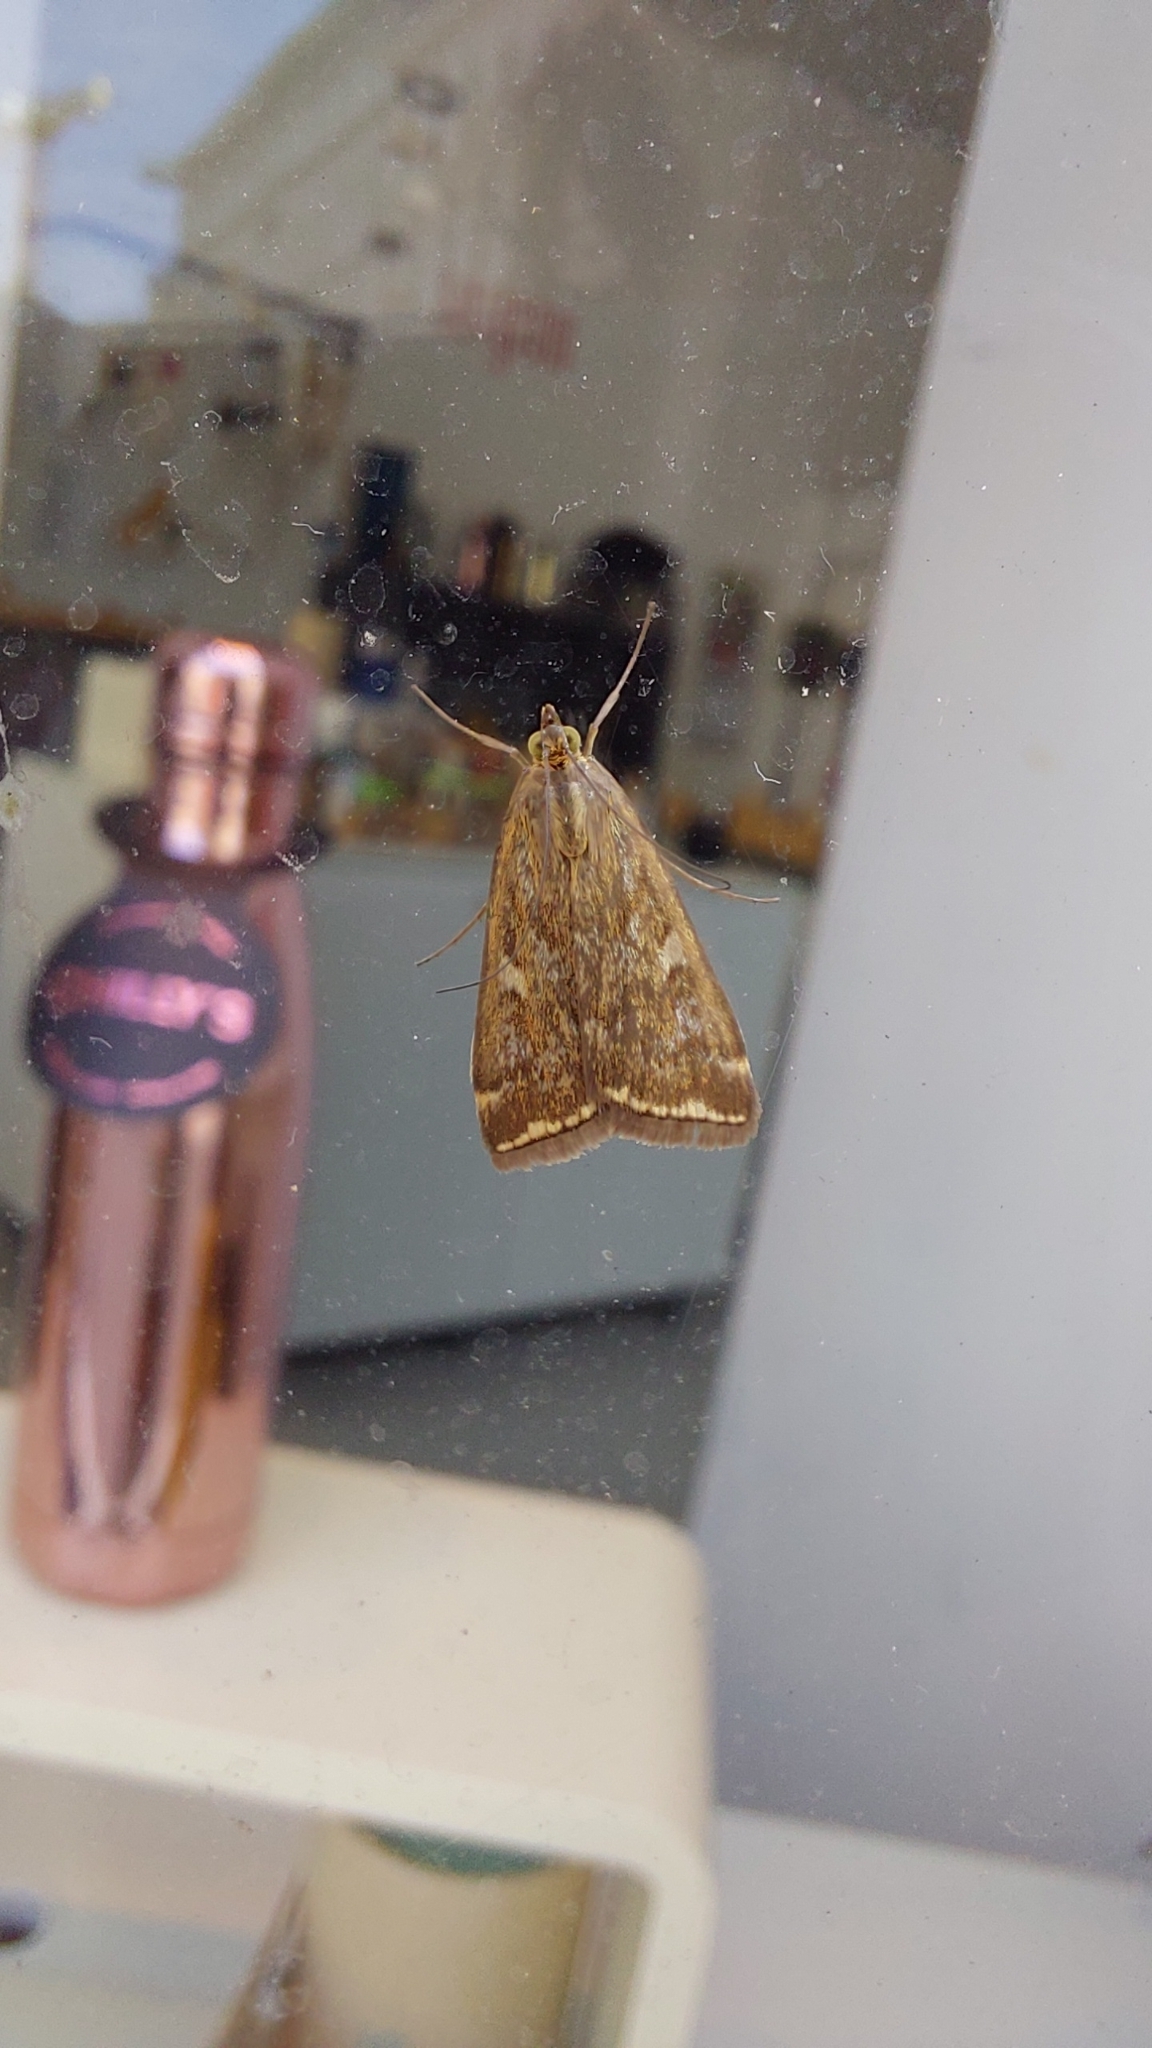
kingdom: Animalia
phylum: Arthropoda
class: Insecta
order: Lepidoptera
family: Crambidae
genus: Loxostege
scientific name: Loxostege sticticalis
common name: Crambid moth
